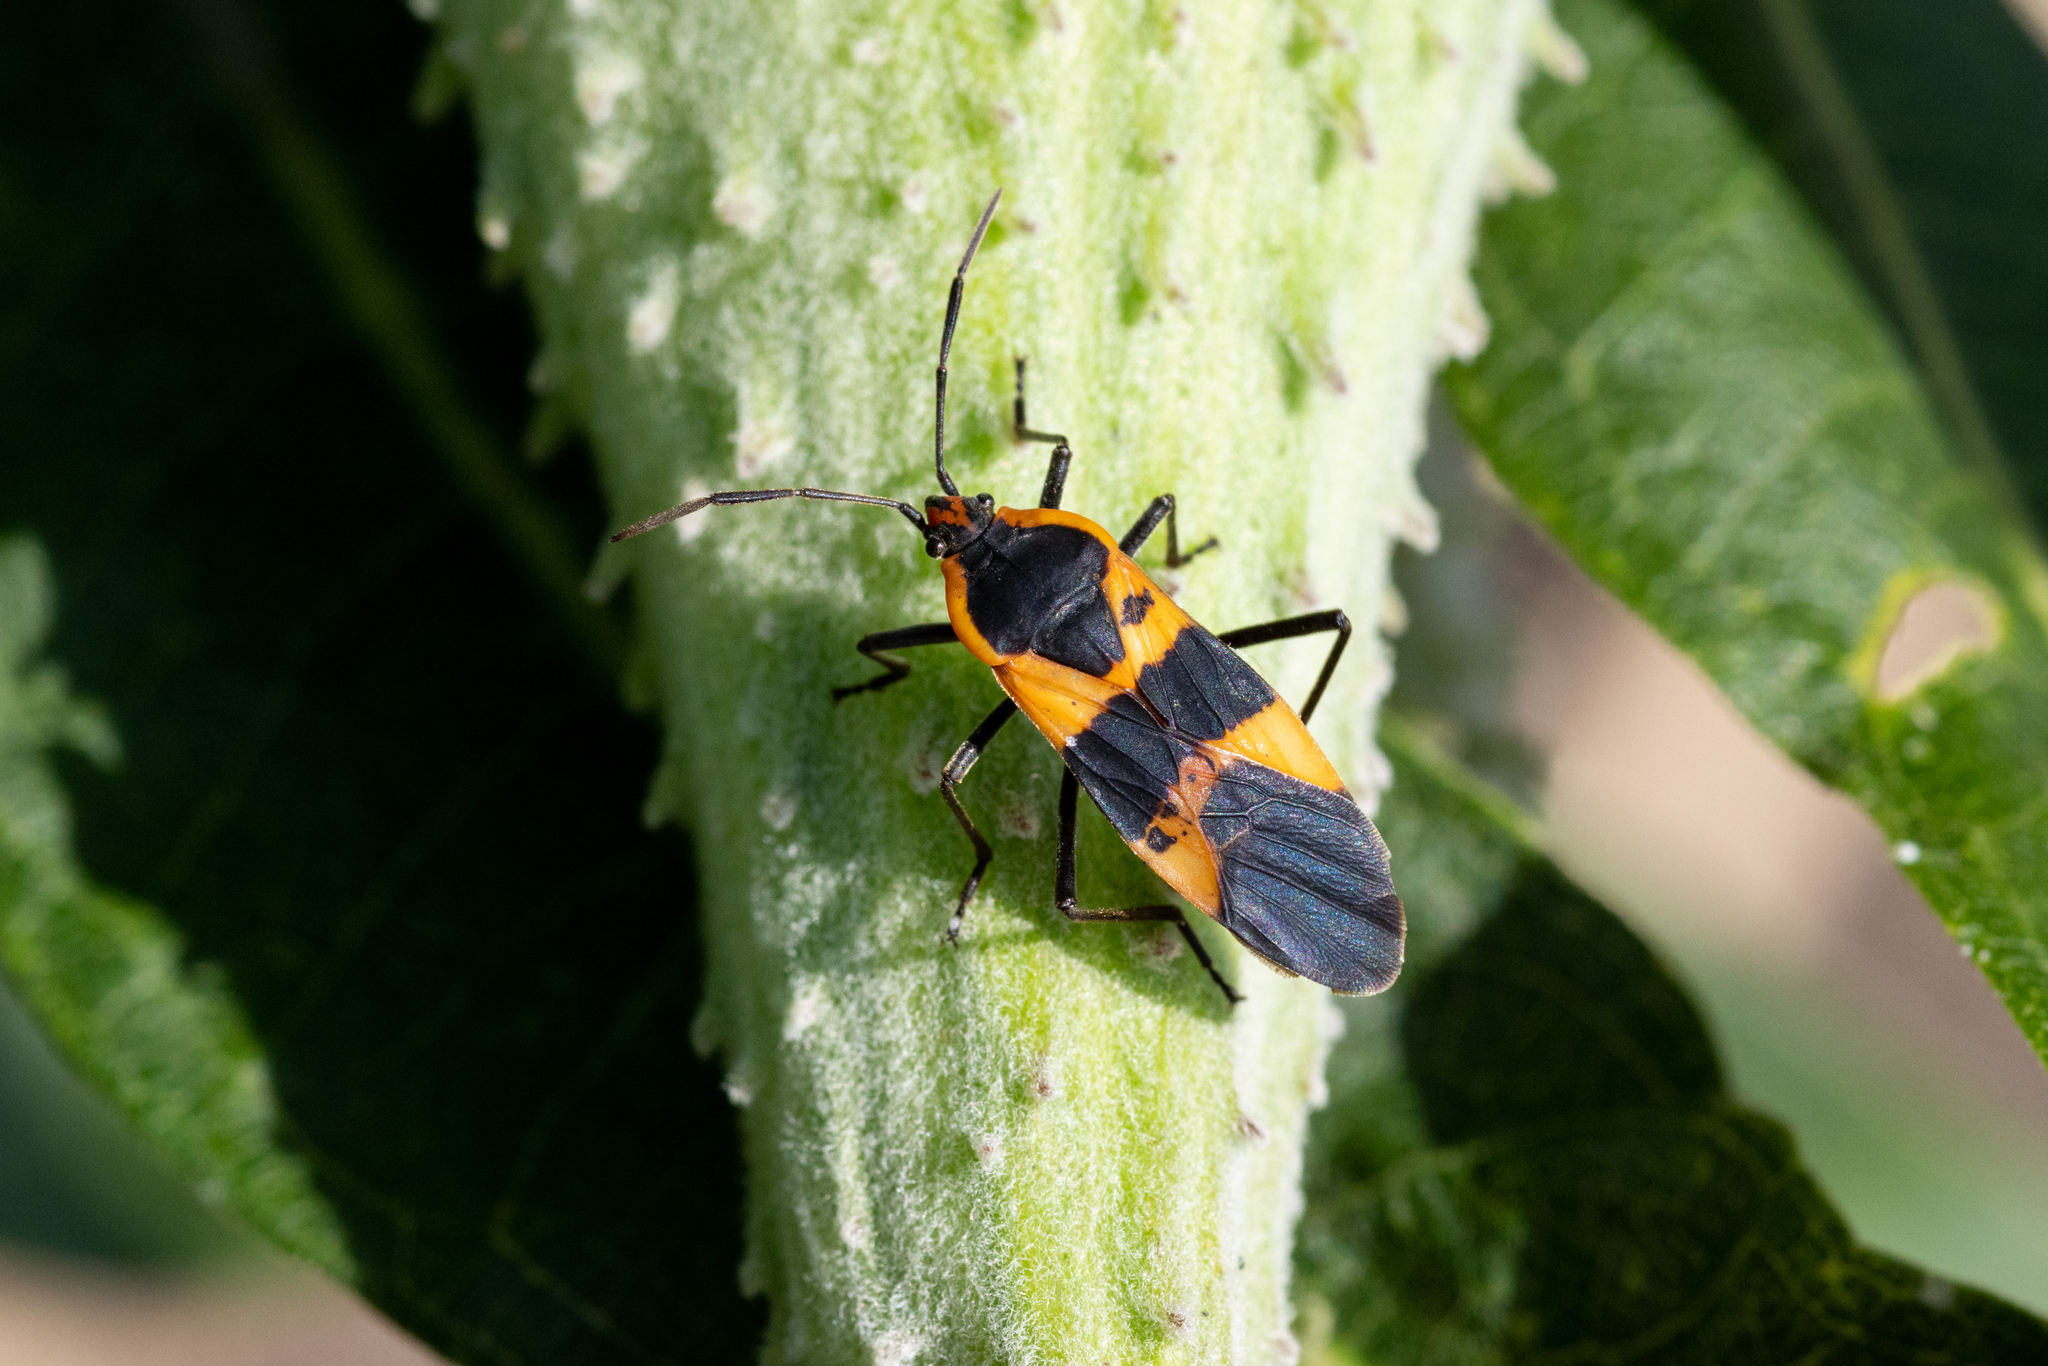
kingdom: Animalia
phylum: Arthropoda
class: Insecta
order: Hemiptera
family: Lygaeidae
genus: Oncopeltus
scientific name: Oncopeltus fasciatus
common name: Large milkweed bug
